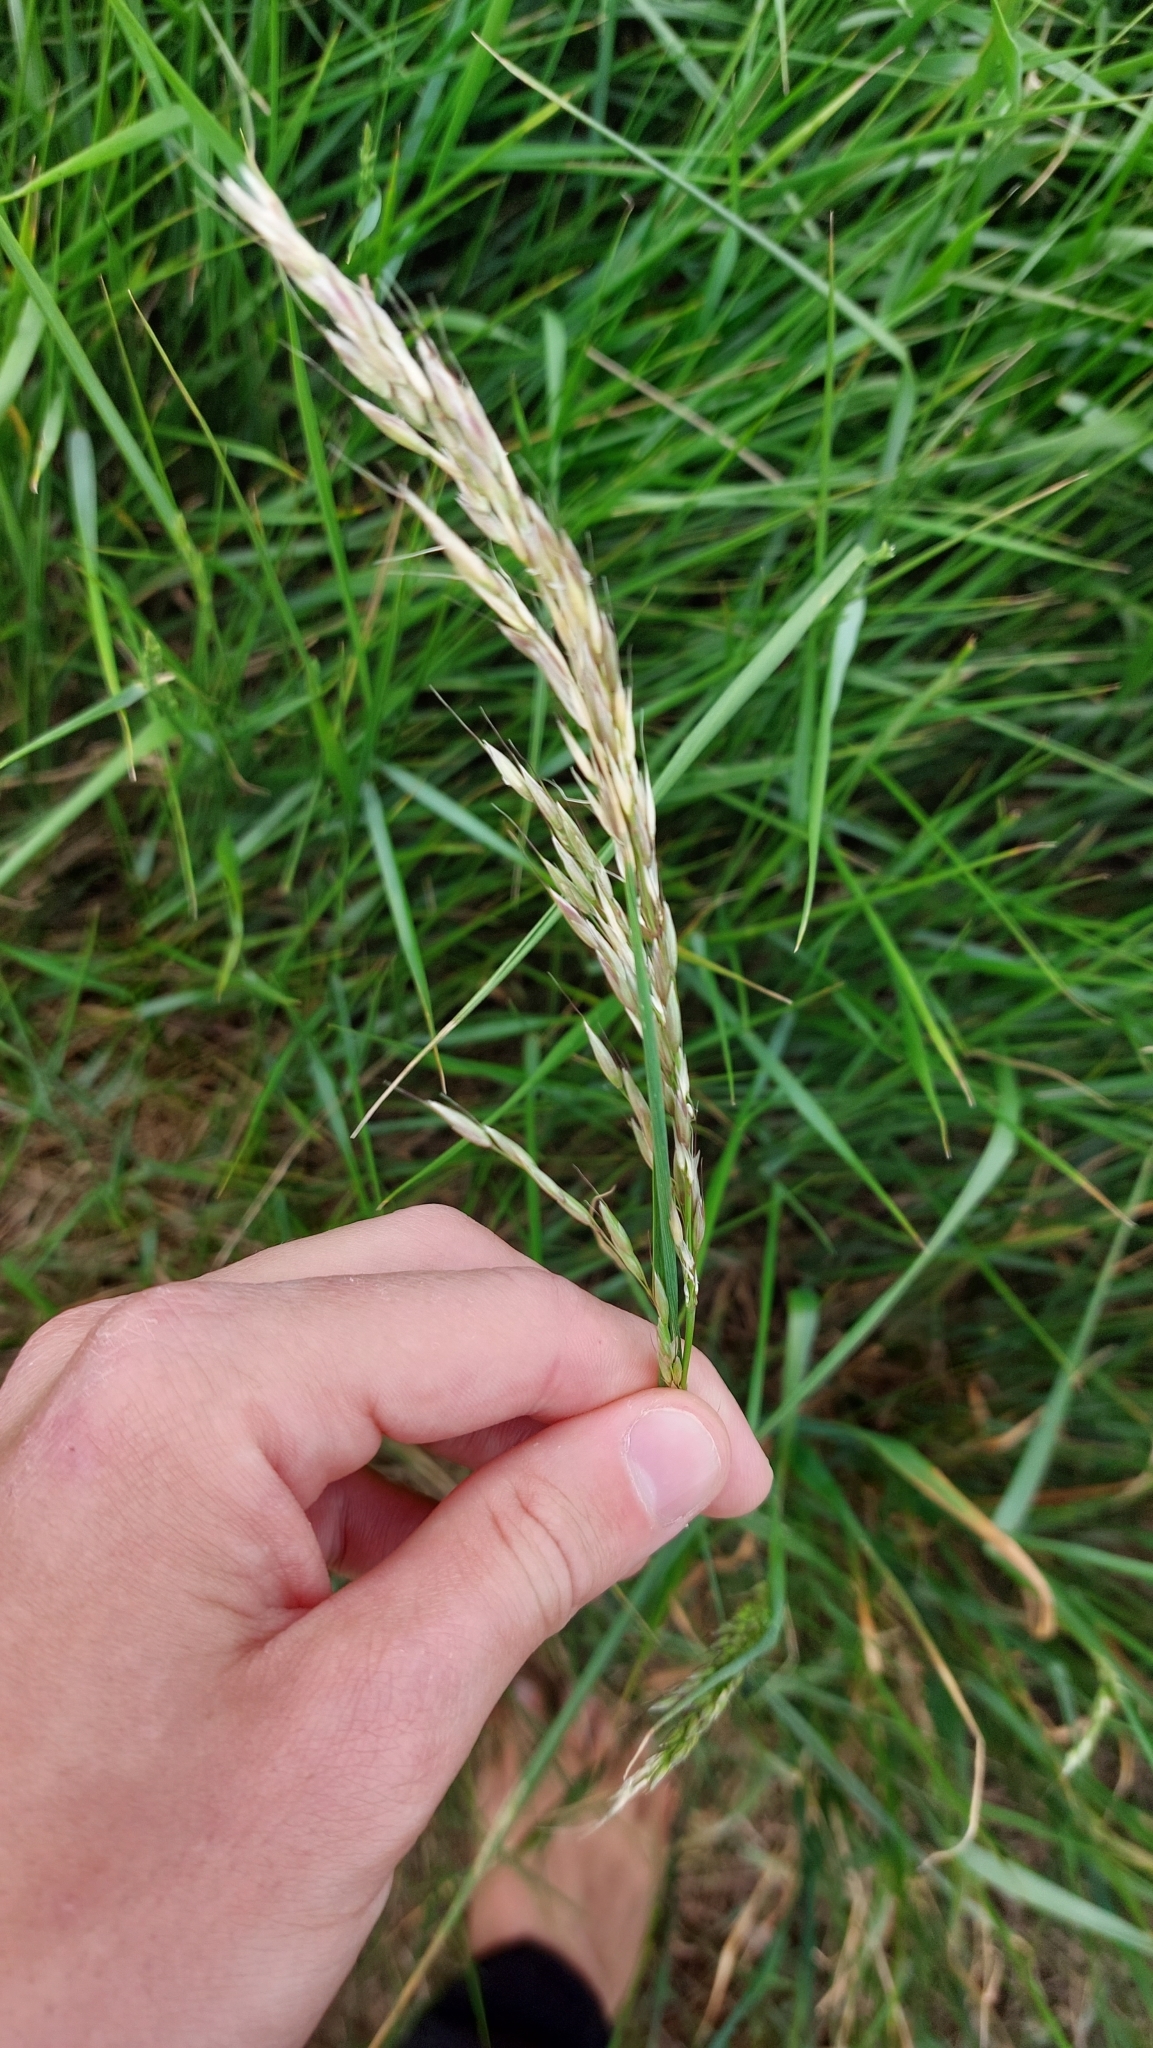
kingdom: Plantae
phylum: Tracheophyta
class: Liliopsida
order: Poales
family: Poaceae
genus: Arrhenatherum
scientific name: Arrhenatherum elatius
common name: Tall oatgrass
